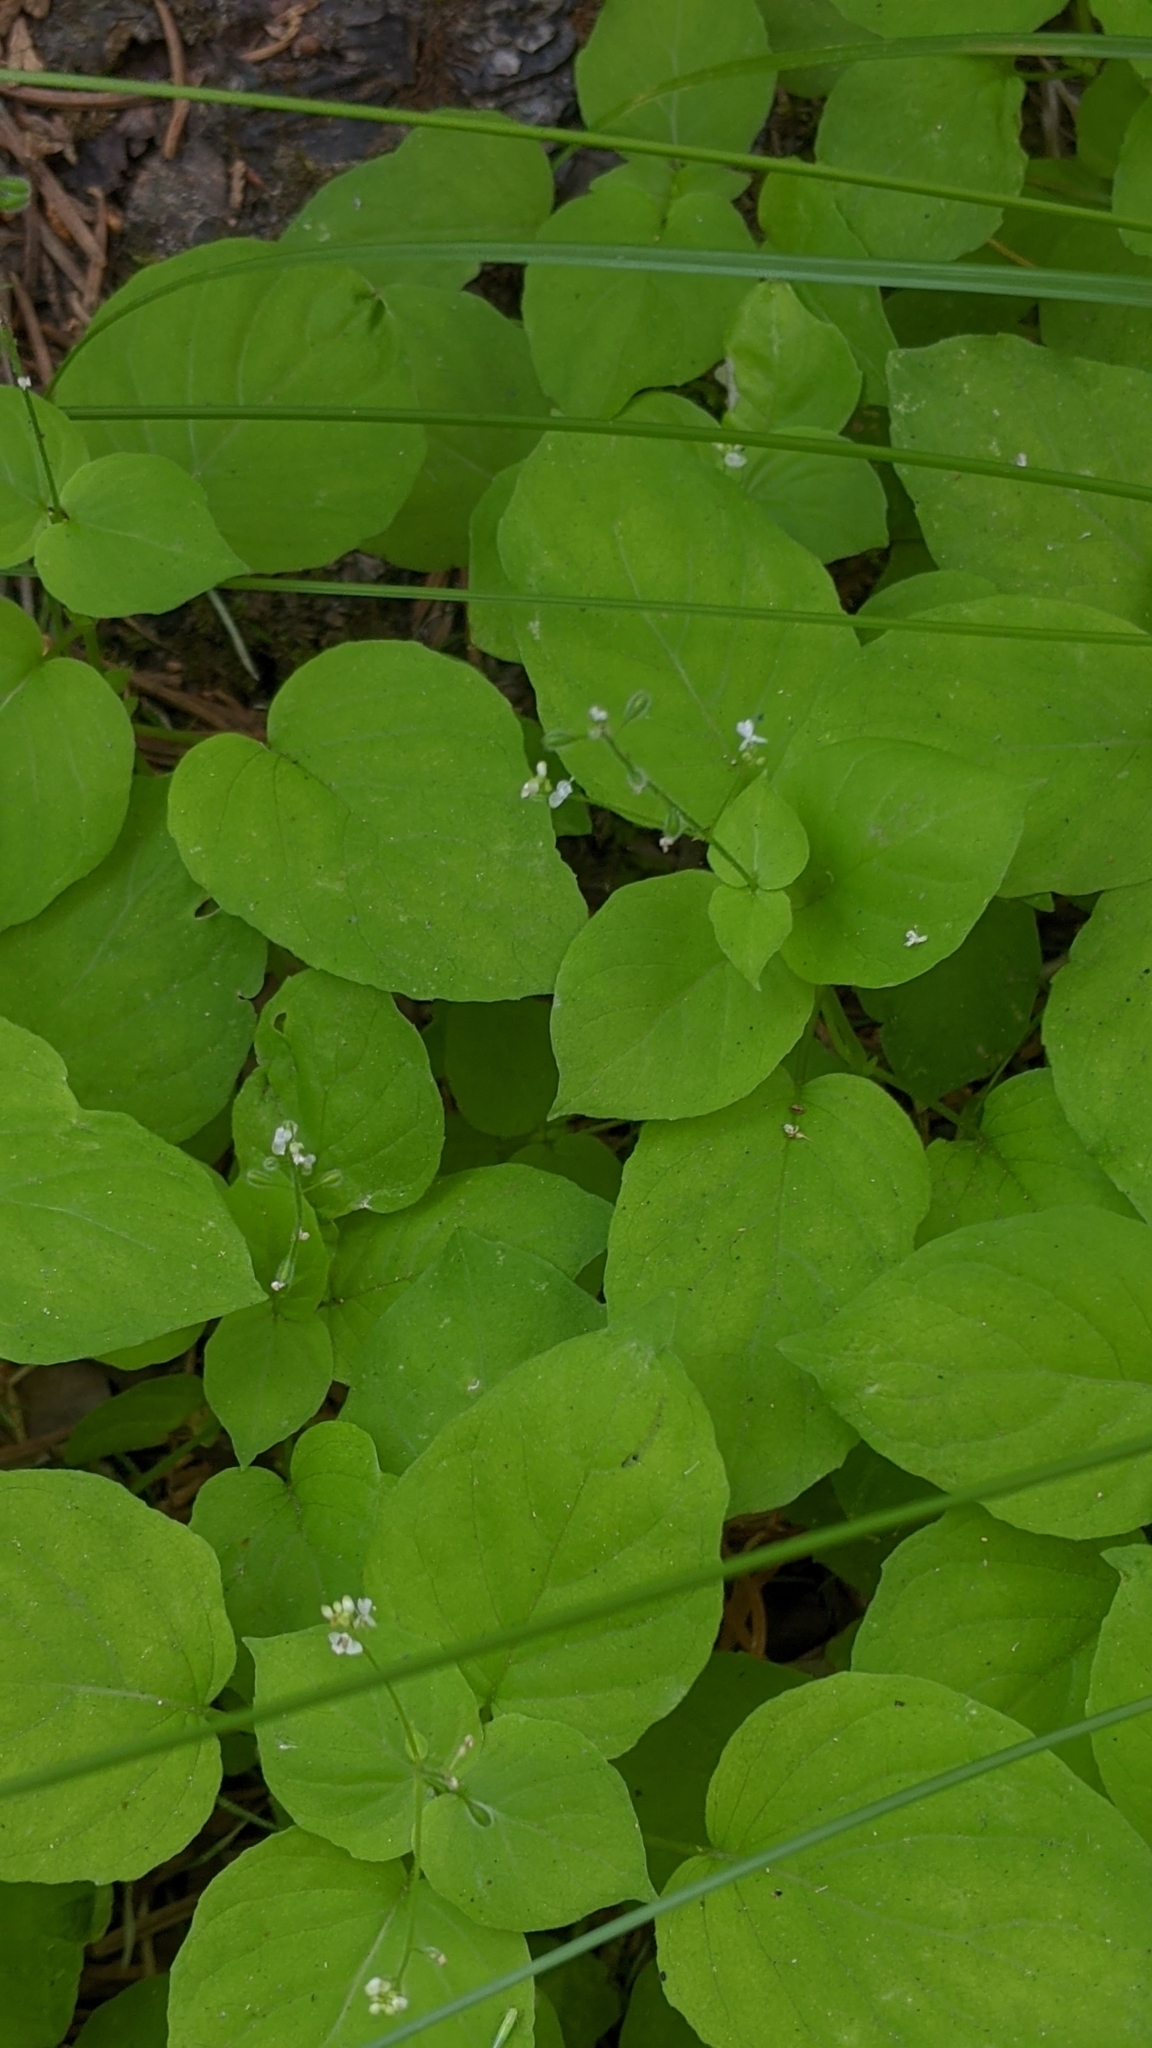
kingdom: Plantae
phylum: Tracheophyta
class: Magnoliopsida
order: Myrtales
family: Onagraceae
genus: Circaea
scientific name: Circaea alpina
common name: Alpine enchanter's-nightshade
